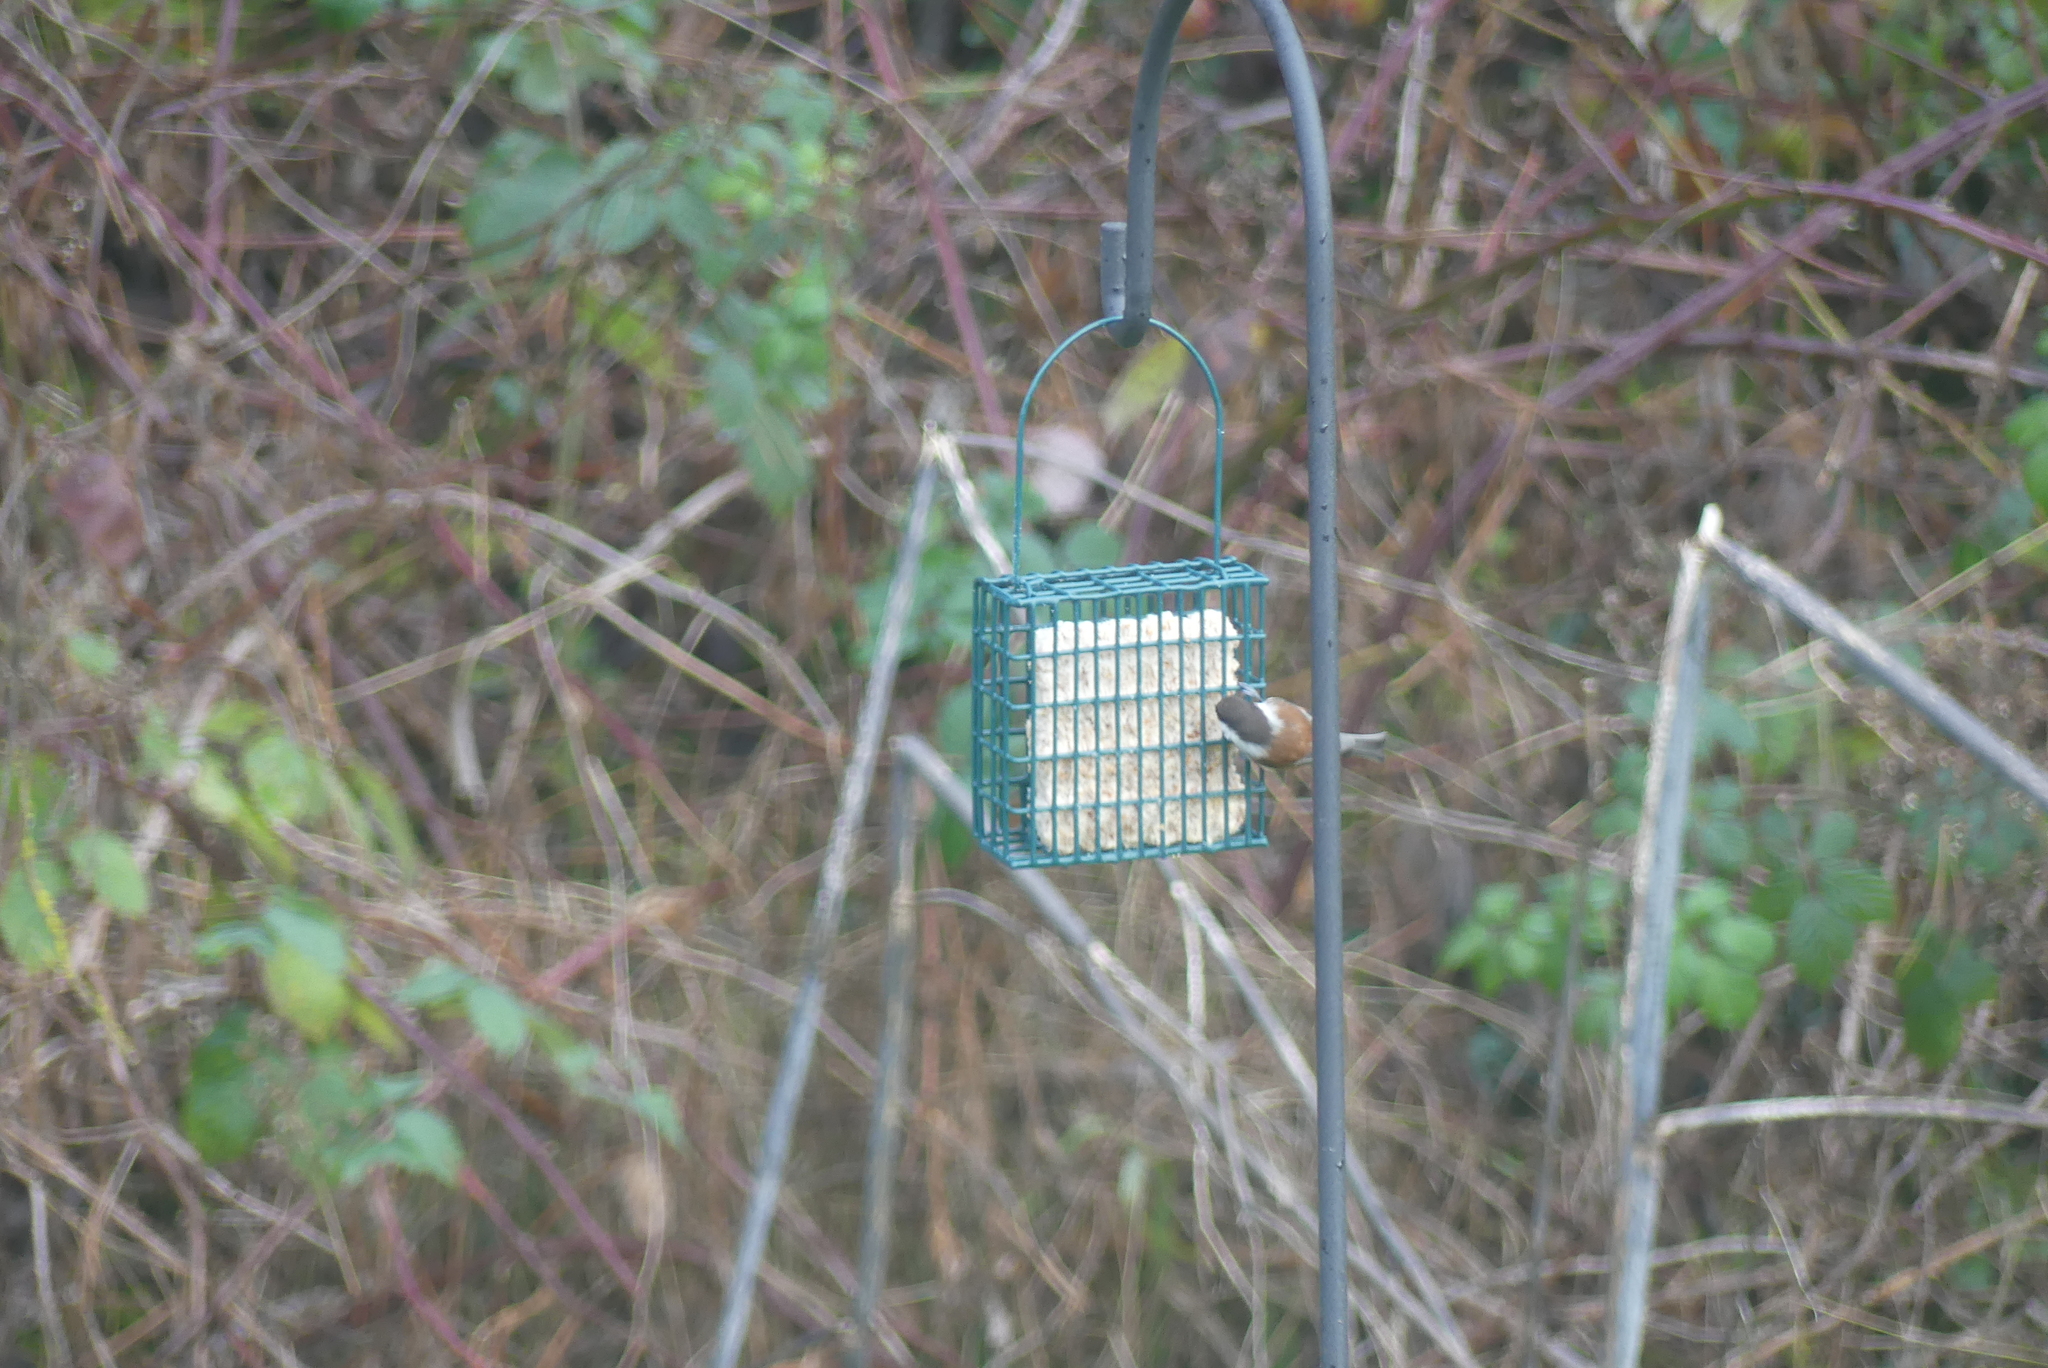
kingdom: Animalia
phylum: Chordata
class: Aves
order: Passeriformes
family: Paridae
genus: Poecile
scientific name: Poecile rufescens
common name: Chestnut-backed chickadee
